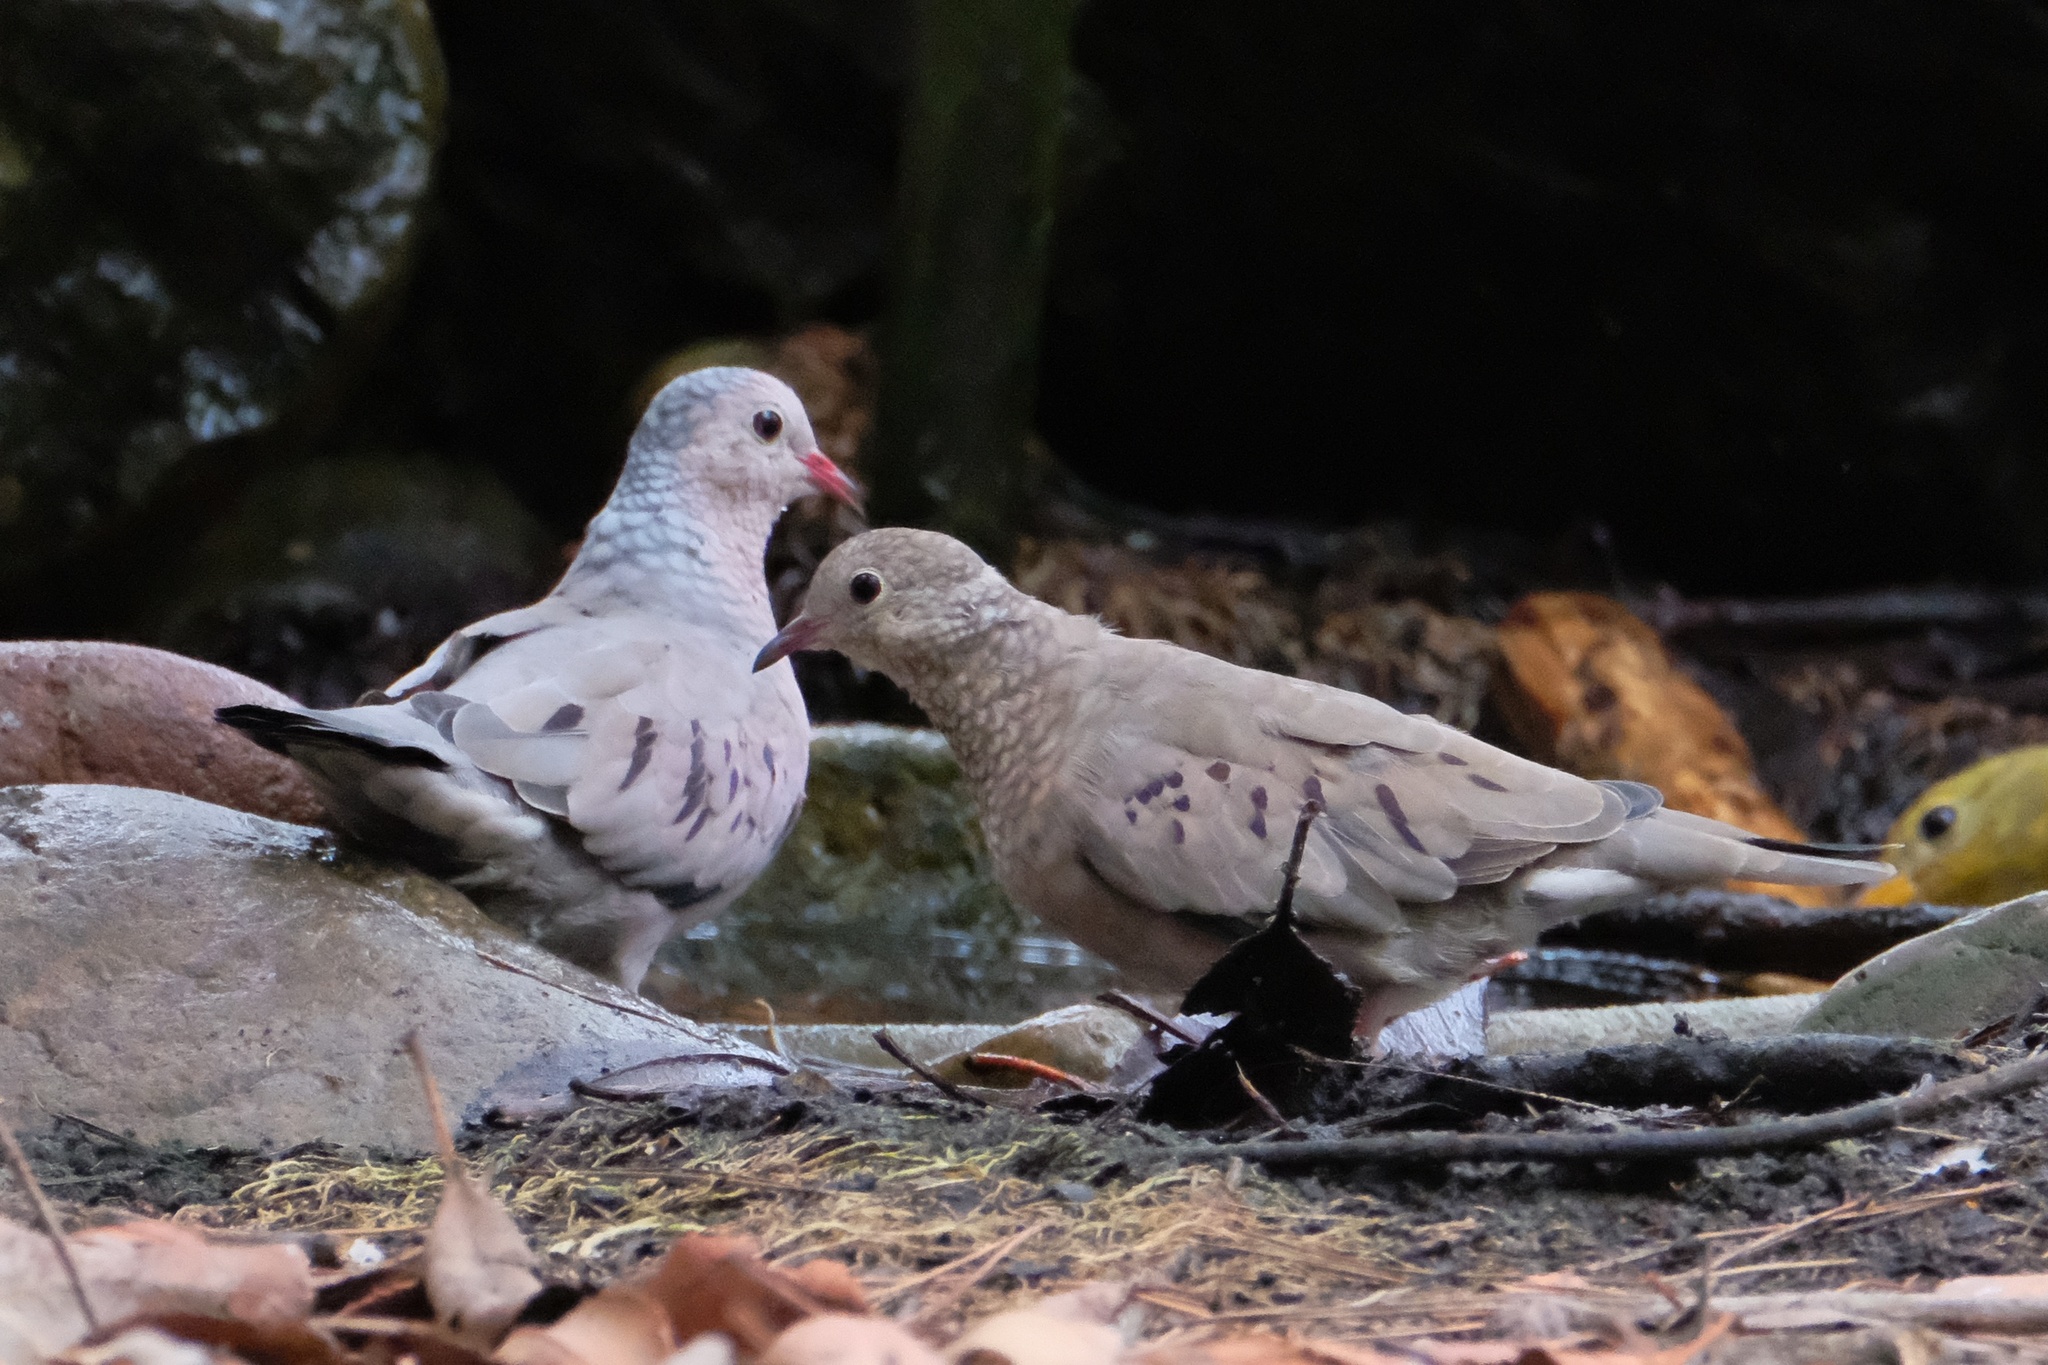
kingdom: Animalia
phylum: Chordata
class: Aves
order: Columbiformes
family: Columbidae
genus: Columbina
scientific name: Columbina passerina
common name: Common ground-dove
